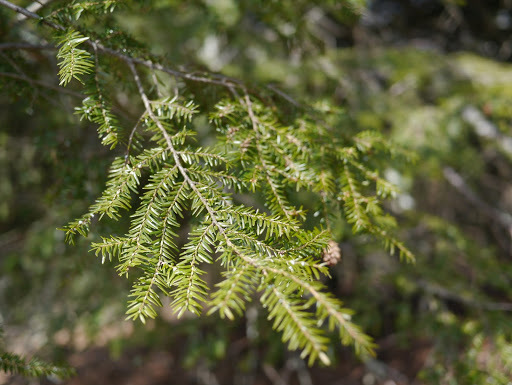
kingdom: Plantae
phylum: Tracheophyta
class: Pinopsida
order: Pinales
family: Pinaceae
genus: Tsuga
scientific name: Tsuga canadensis
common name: Eastern hemlock
